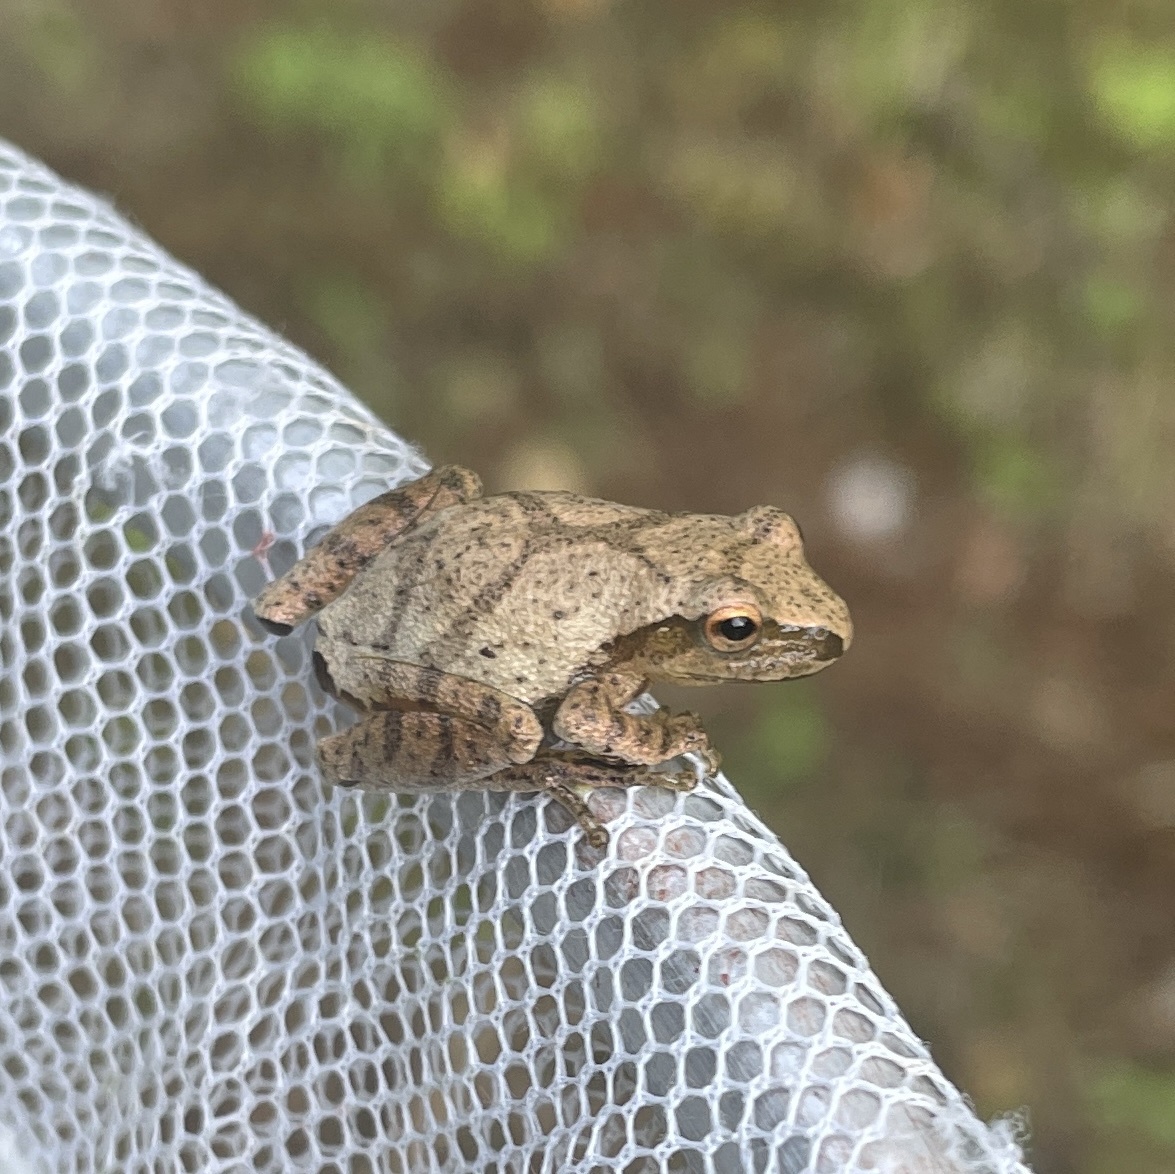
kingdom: Animalia
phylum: Chordata
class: Amphibia
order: Anura
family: Hylidae
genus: Pseudacris
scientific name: Pseudacris crucifer
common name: Spring peeper
